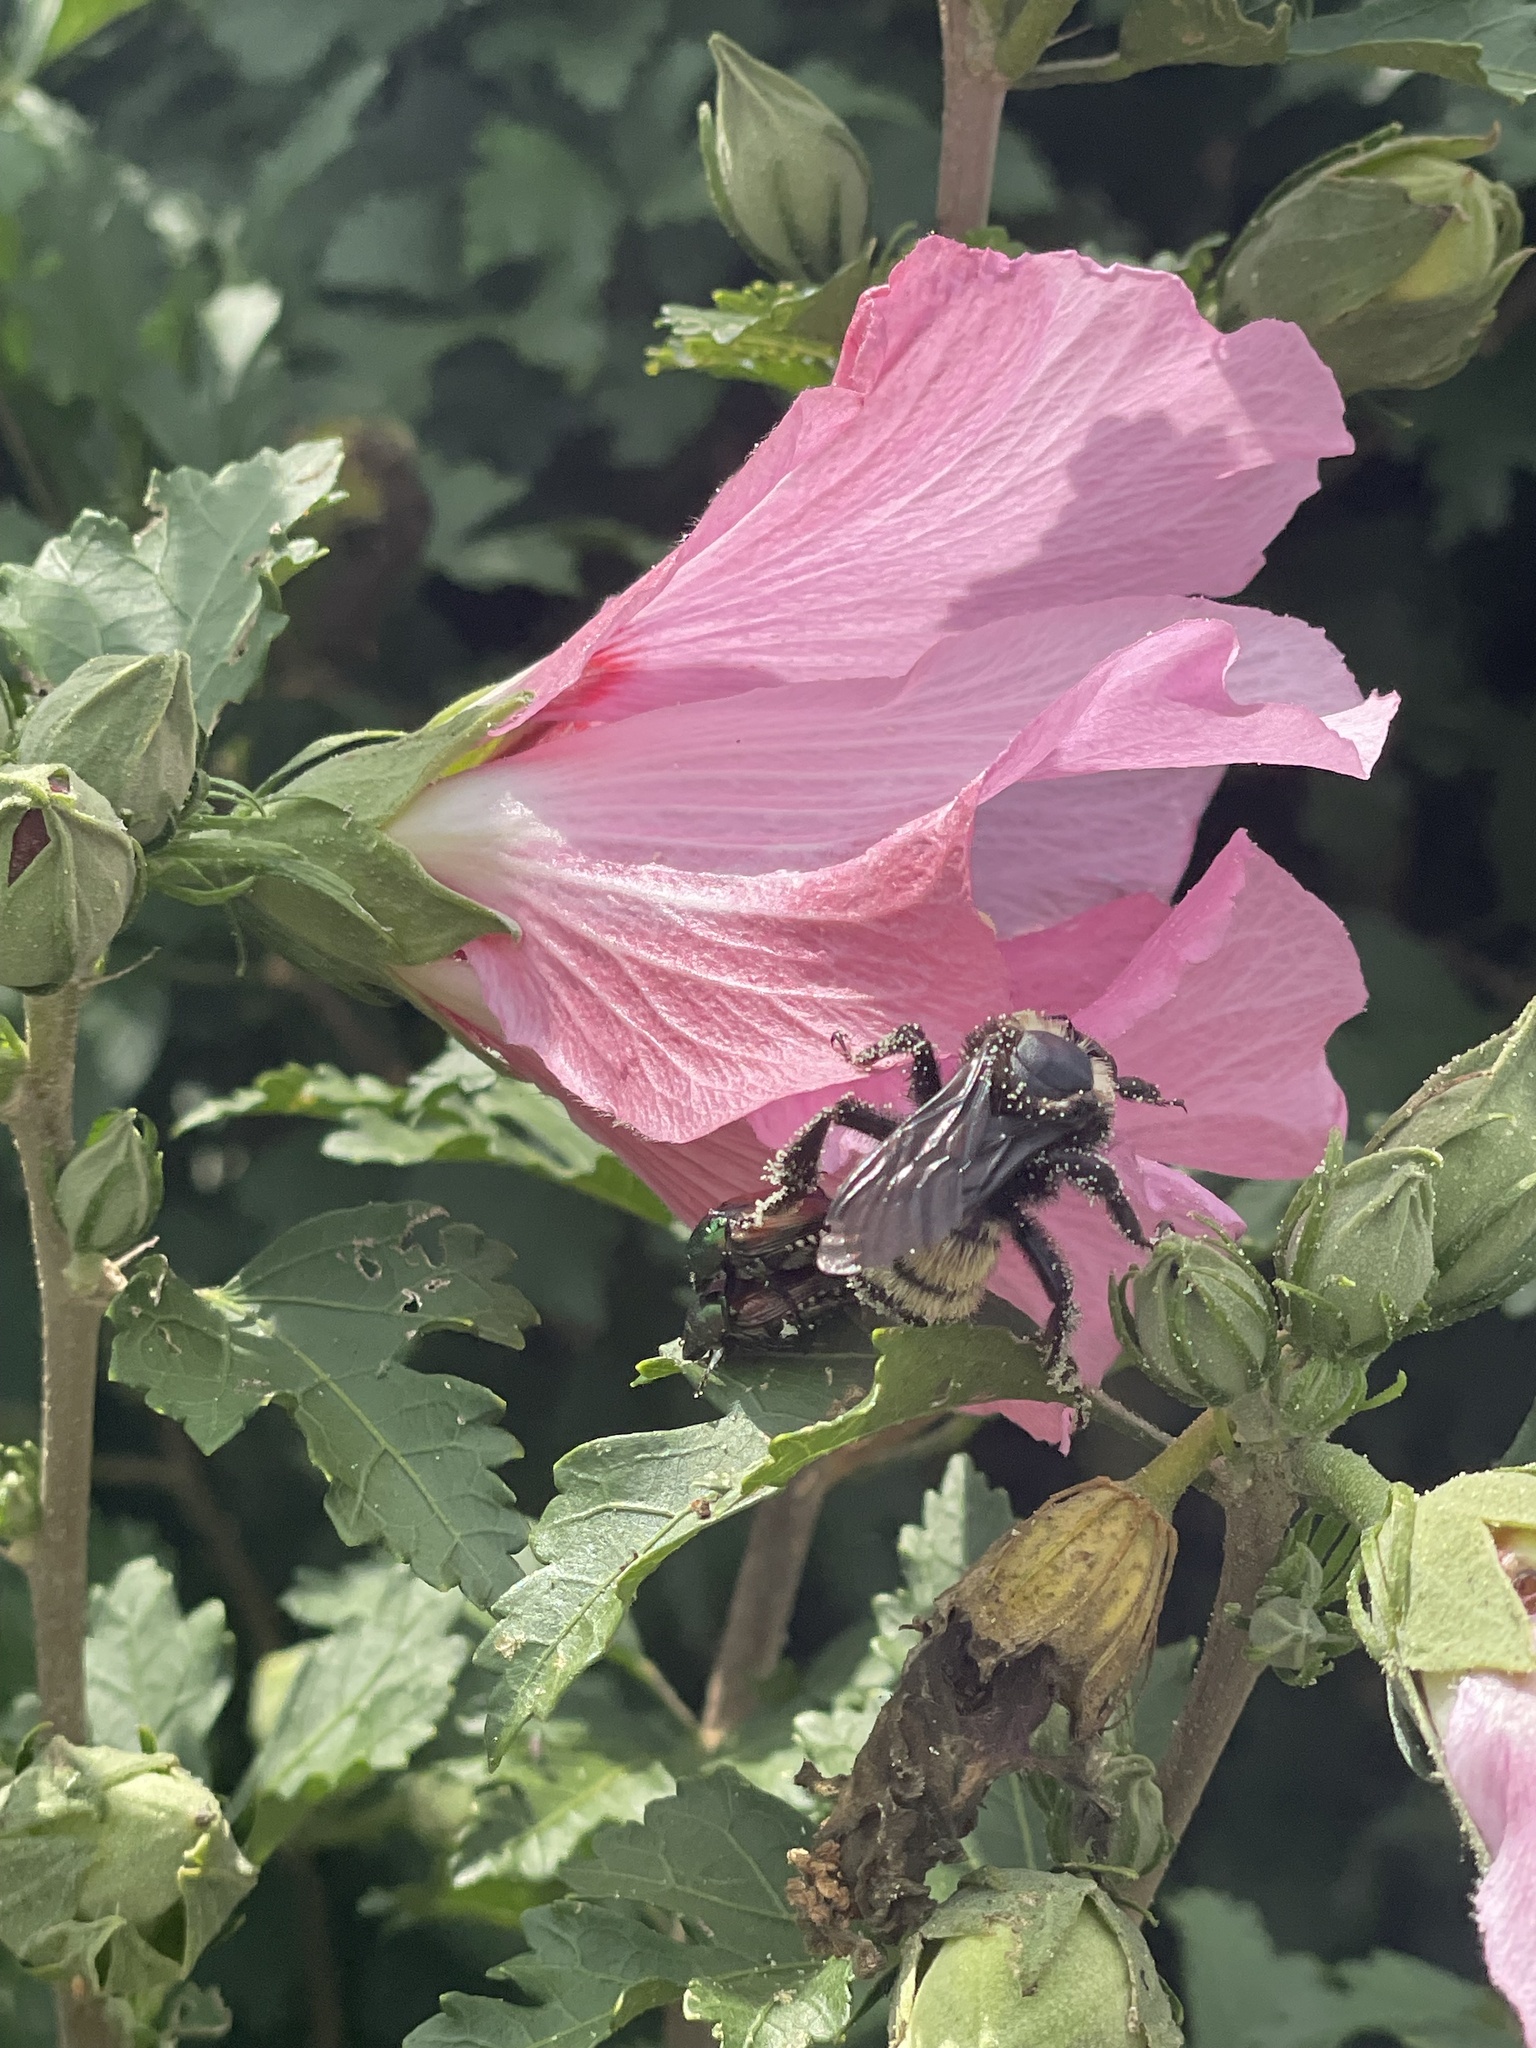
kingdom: Animalia
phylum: Arthropoda
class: Insecta
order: Hymenoptera
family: Apidae
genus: Bombus
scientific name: Bombus pensylvanicus
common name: Bumble bee
